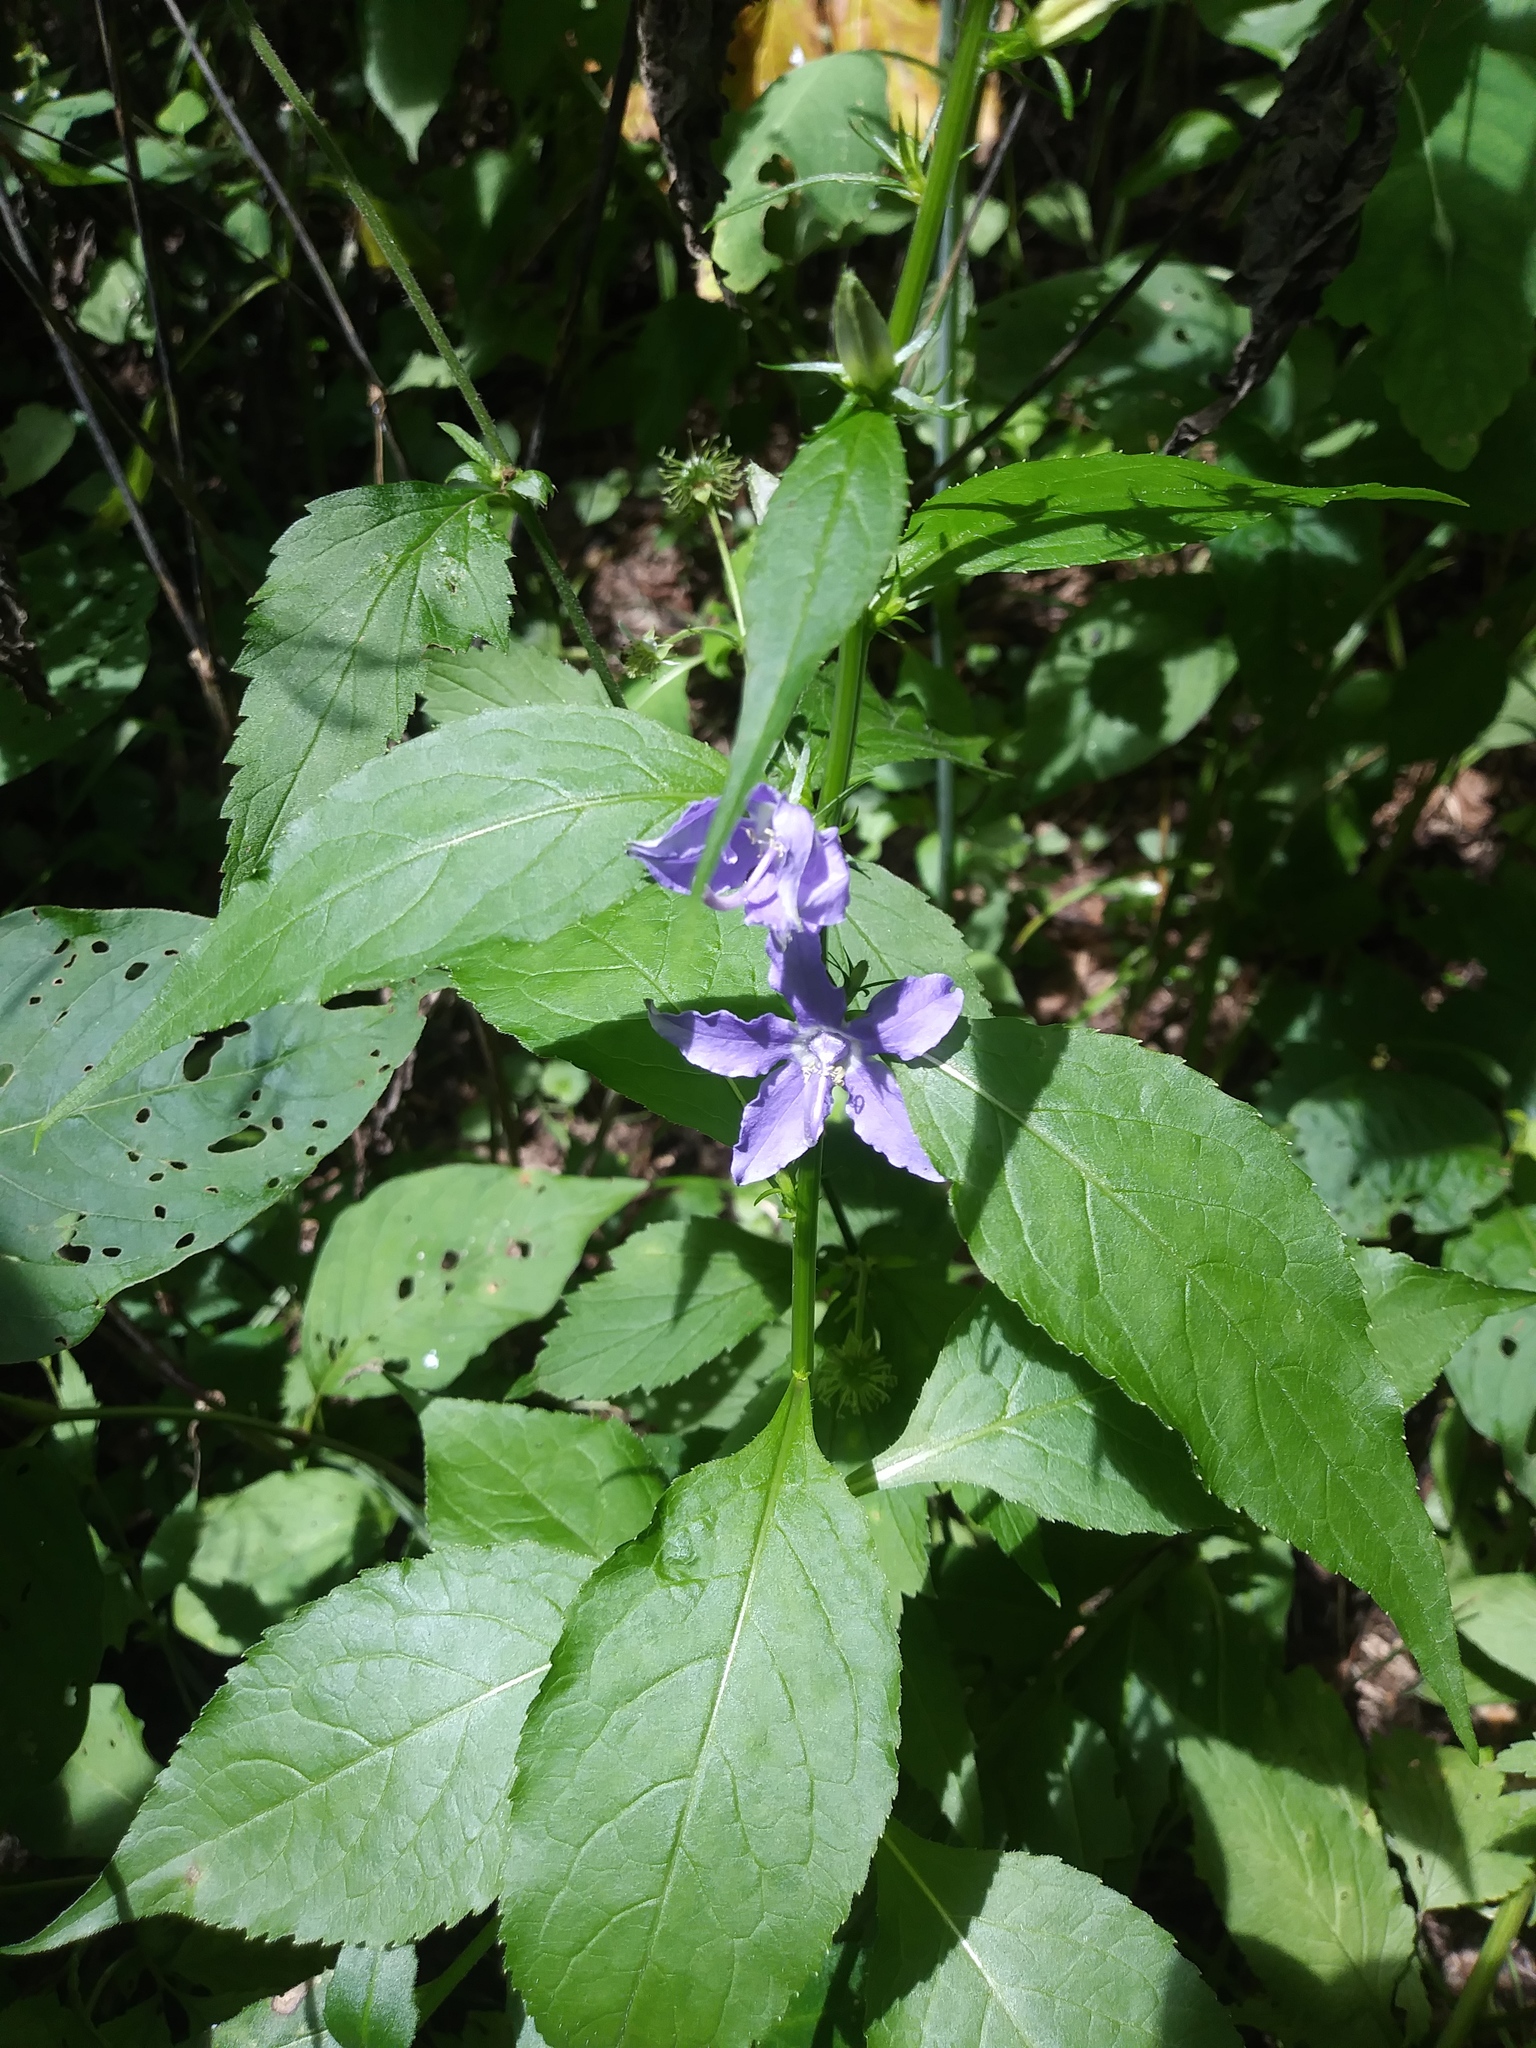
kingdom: Plantae
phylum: Tracheophyta
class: Magnoliopsida
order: Asterales
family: Campanulaceae
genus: Campanulastrum
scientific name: Campanulastrum americanum
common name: American bellflower
